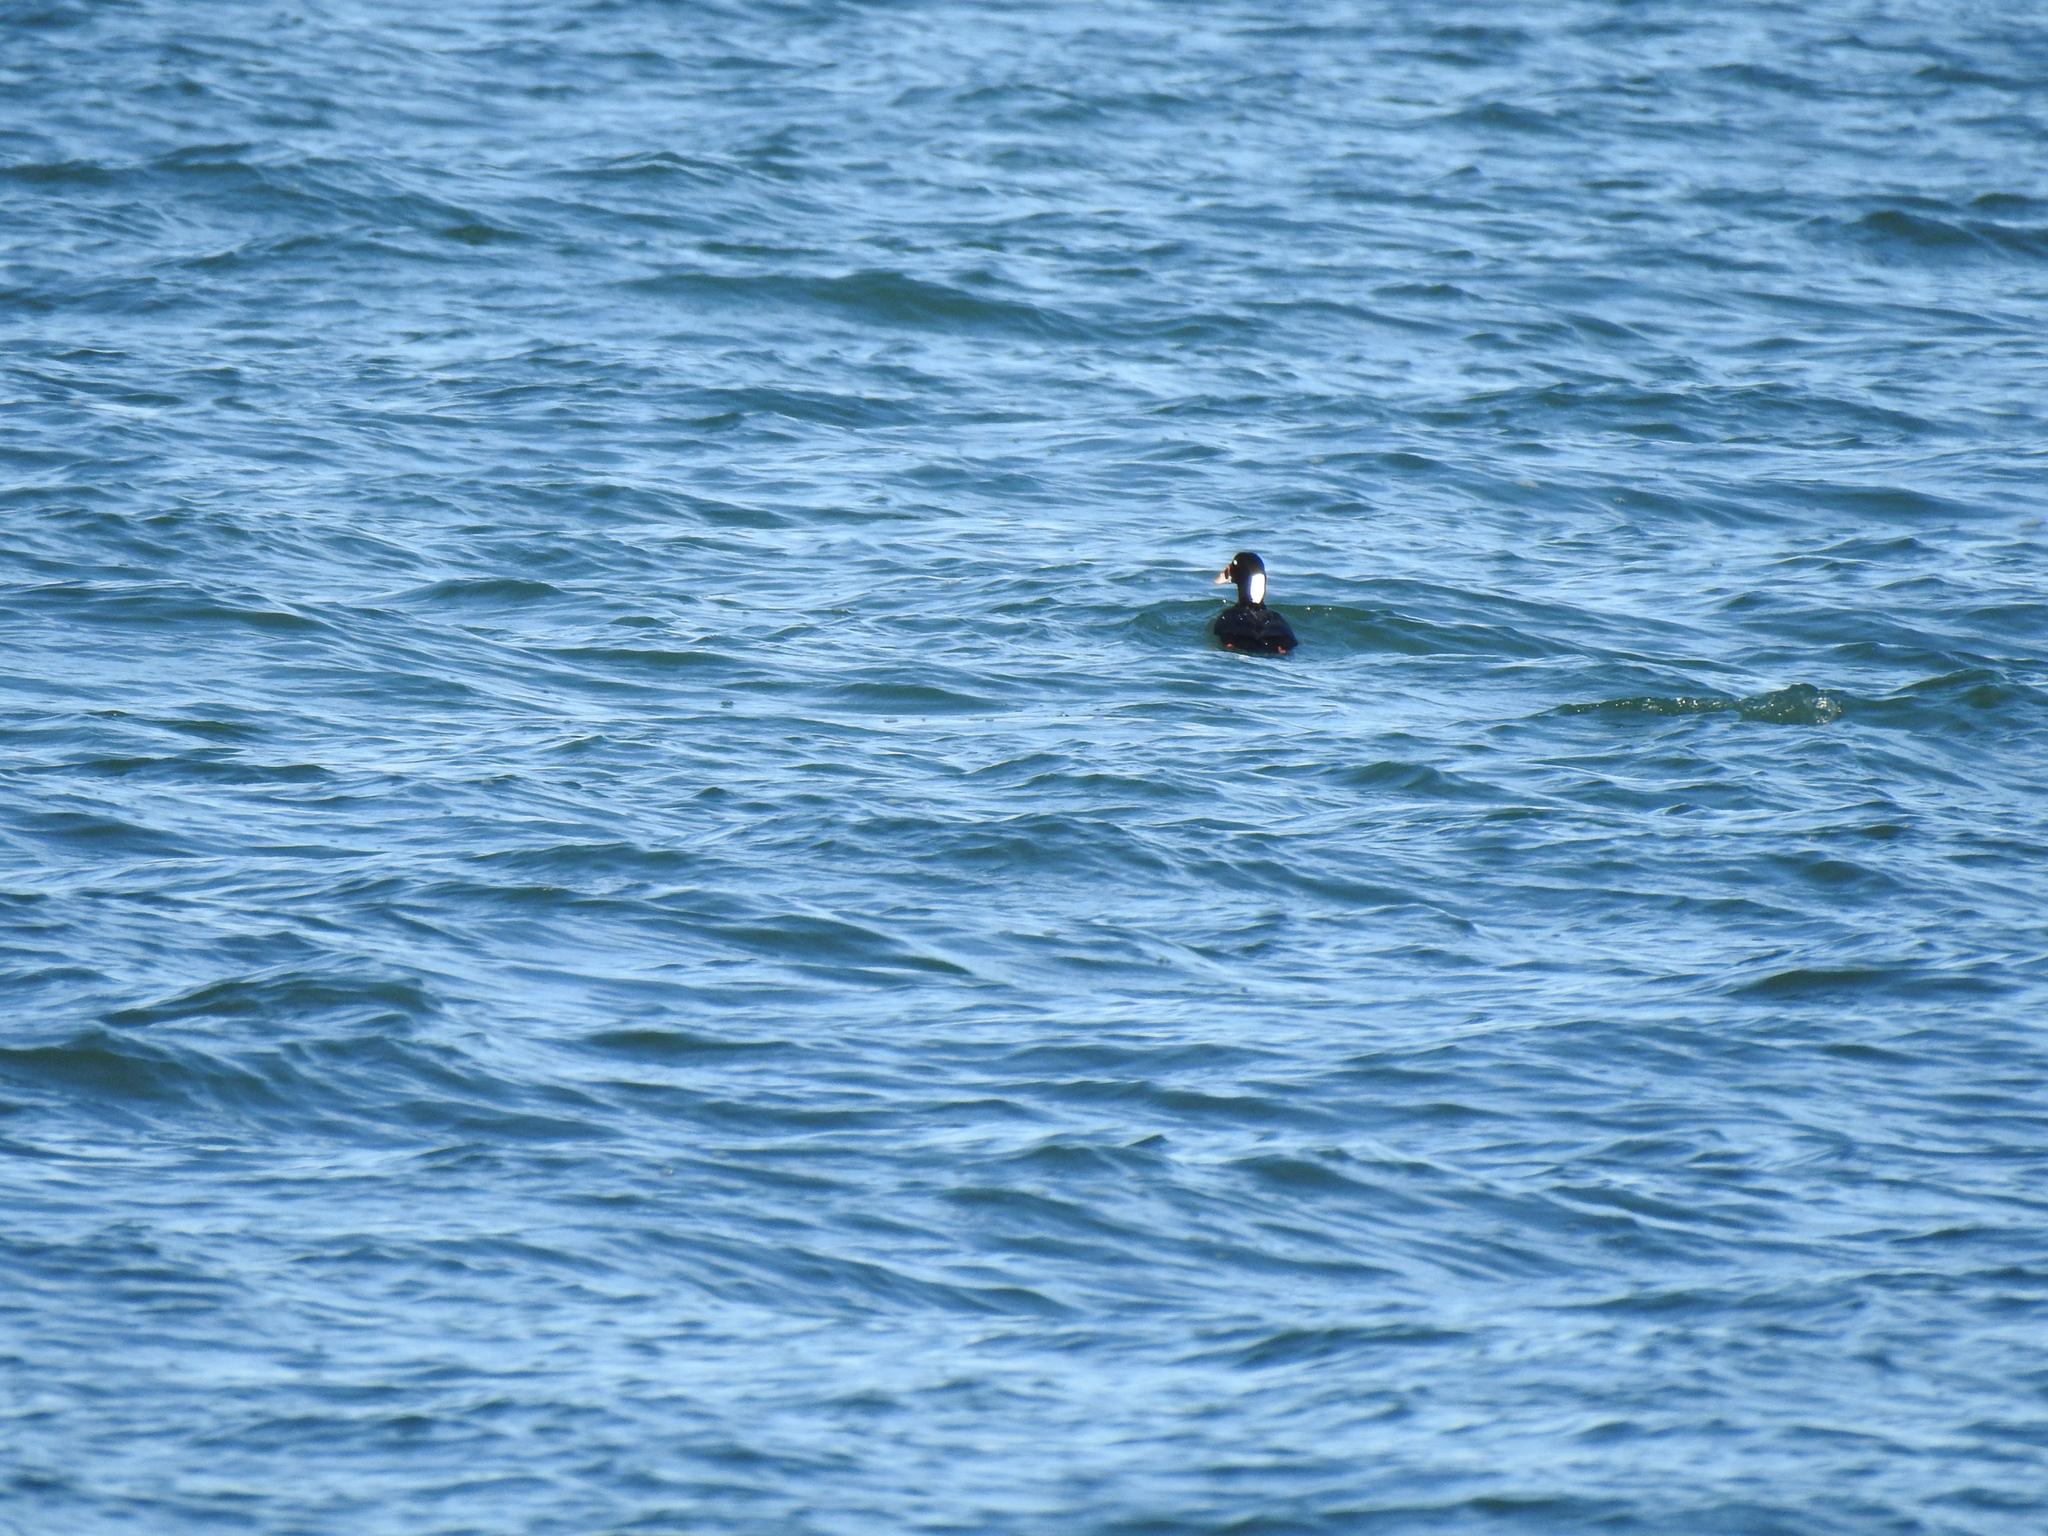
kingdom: Animalia
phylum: Chordata
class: Aves
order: Anseriformes
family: Anatidae
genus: Melanitta
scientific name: Melanitta perspicillata
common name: Surf scoter
